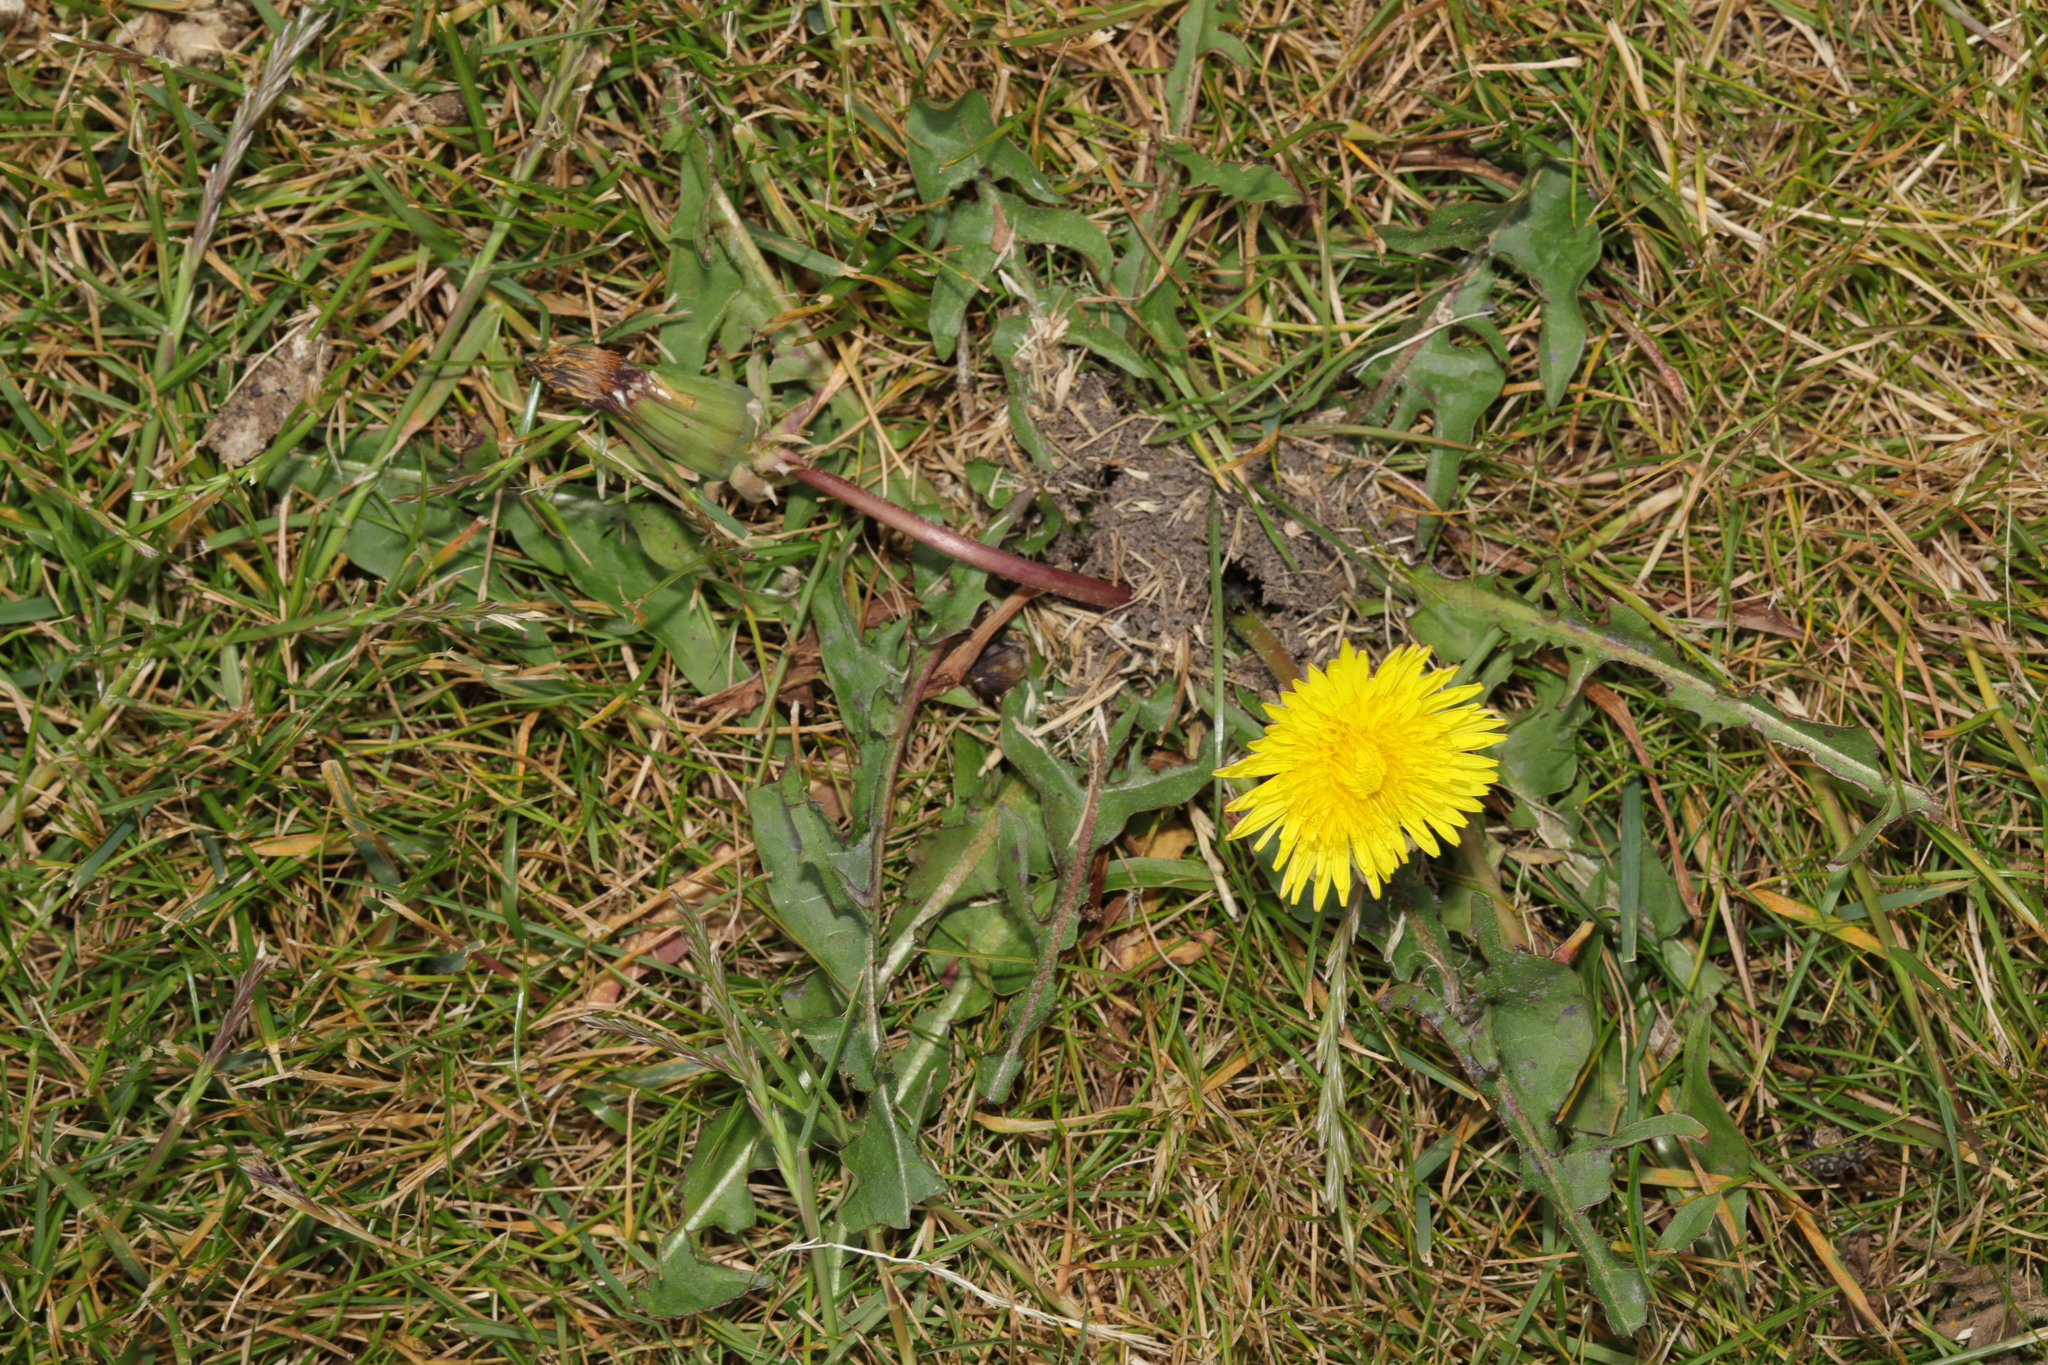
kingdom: Plantae
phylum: Tracheophyta
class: Magnoliopsida
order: Asterales
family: Asteraceae
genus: Taraxacum
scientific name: Taraxacum officinale
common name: Common dandelion
